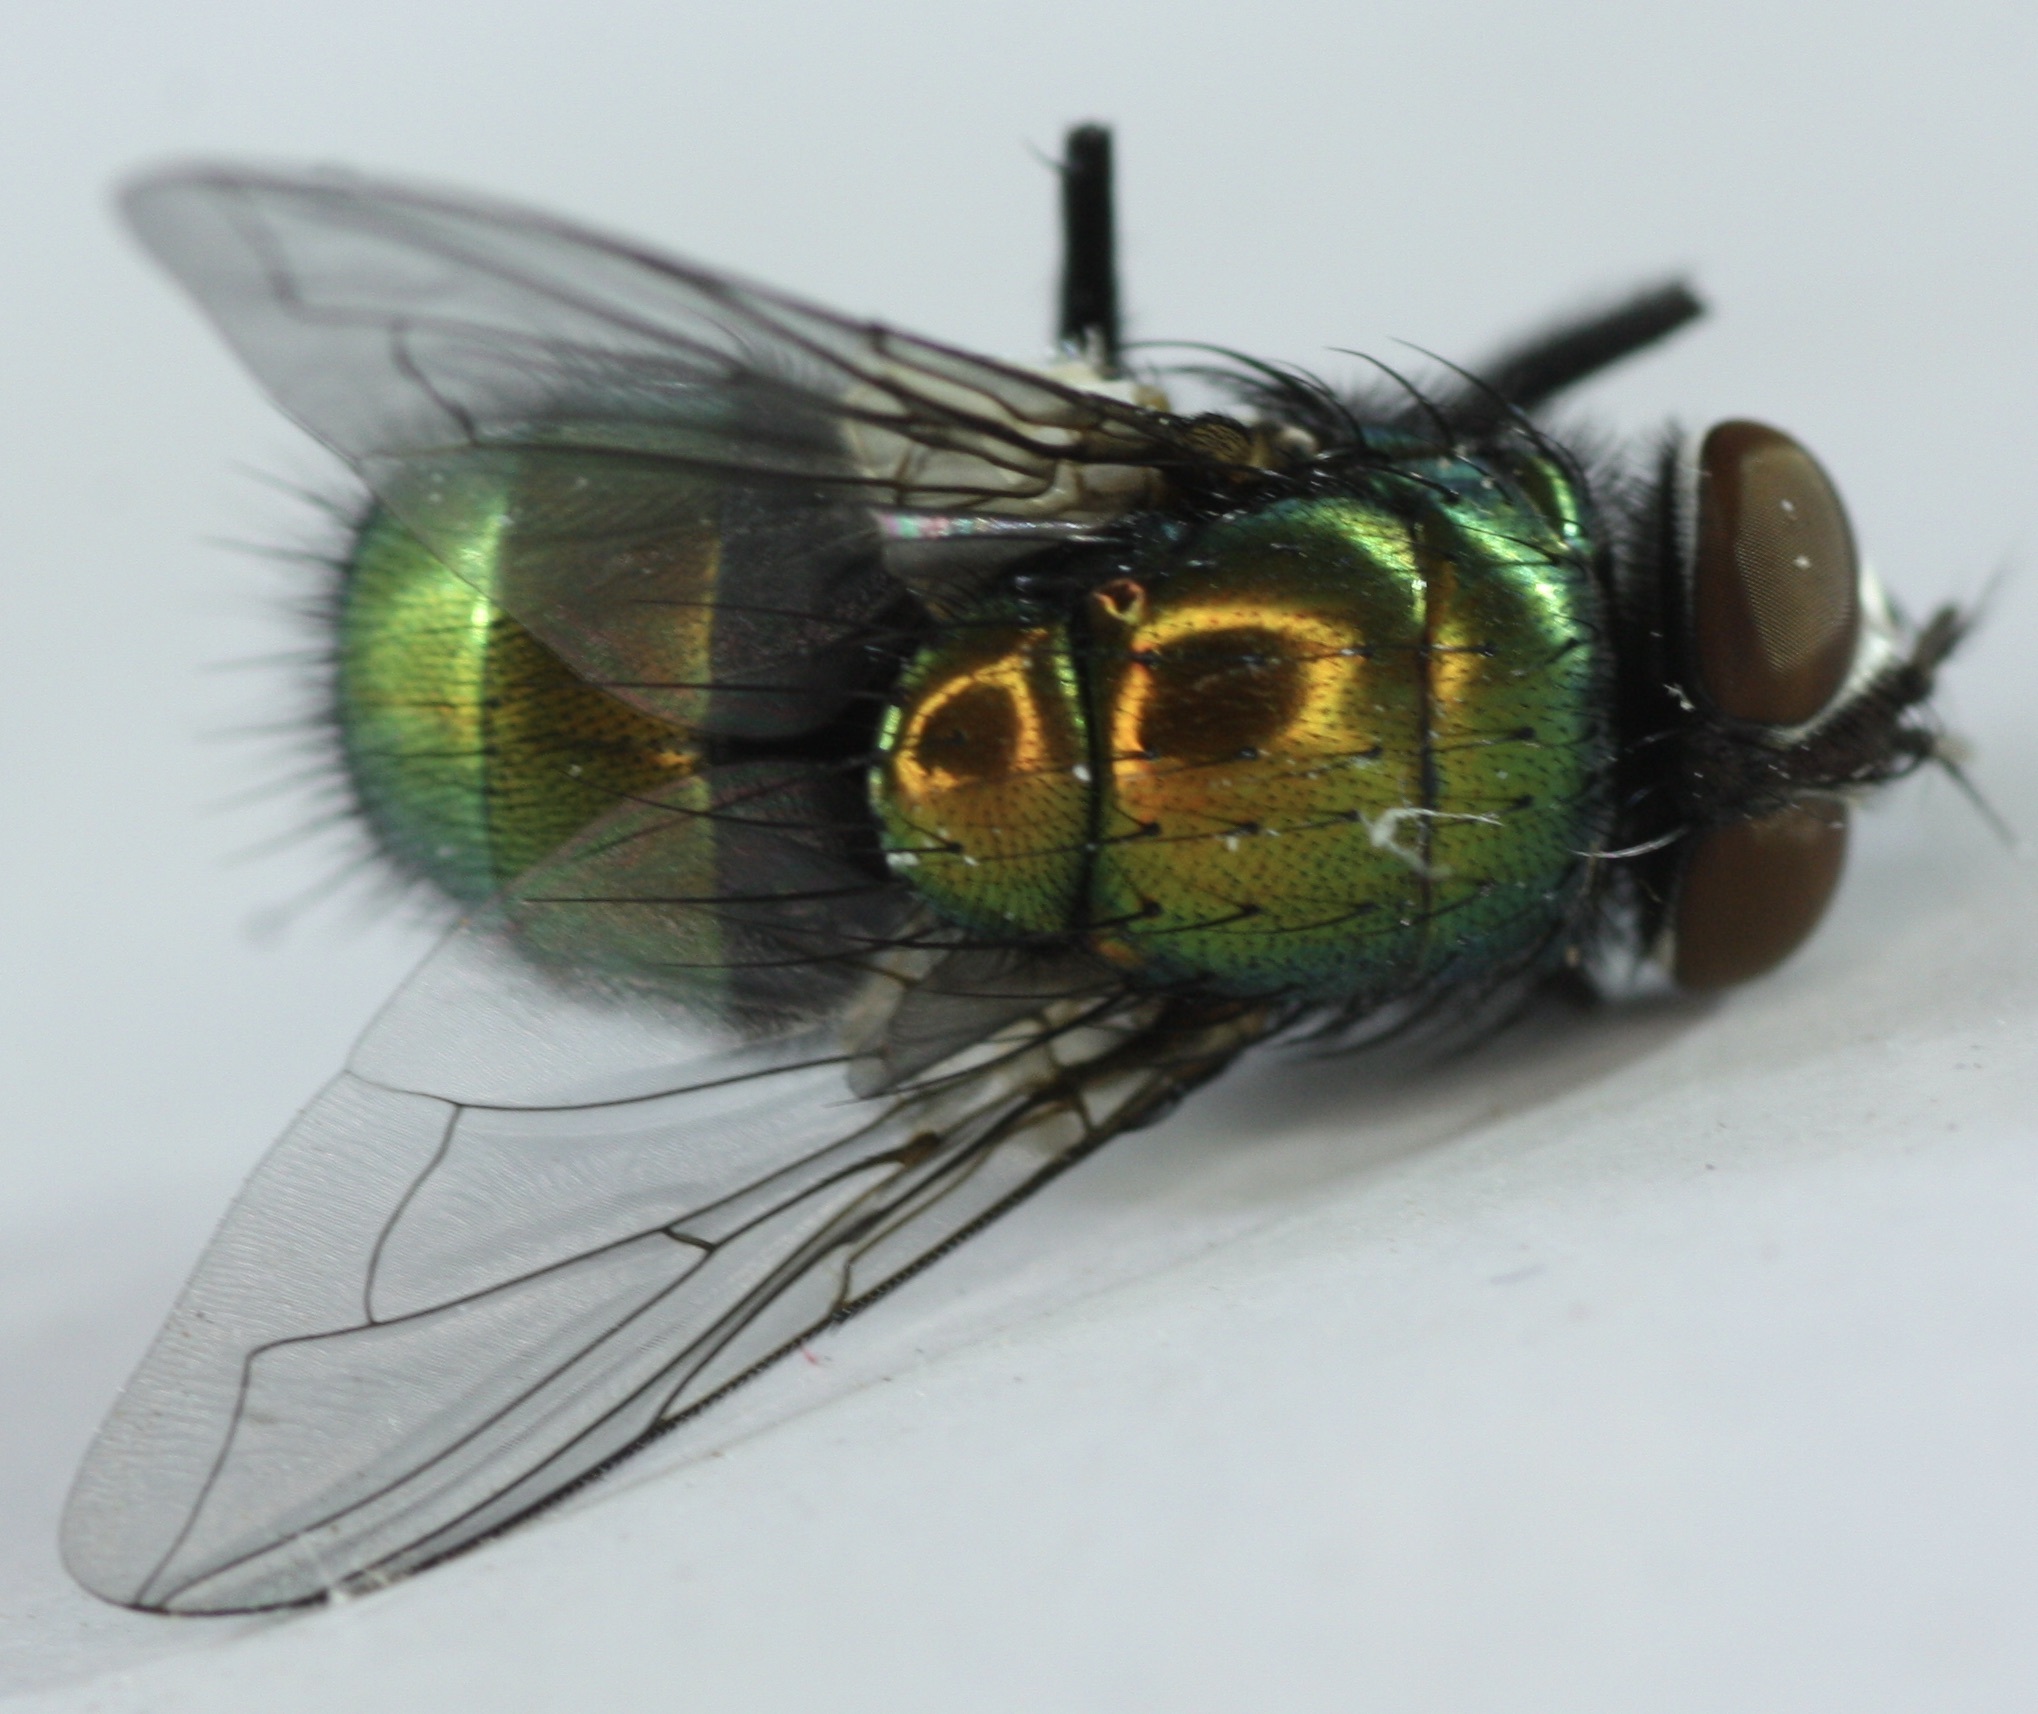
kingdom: Animalia
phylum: Arthropoda
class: Insecta
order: Diptera
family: Calliphoridae
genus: Lucilia
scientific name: Lucilia sericata
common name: Blow fly
